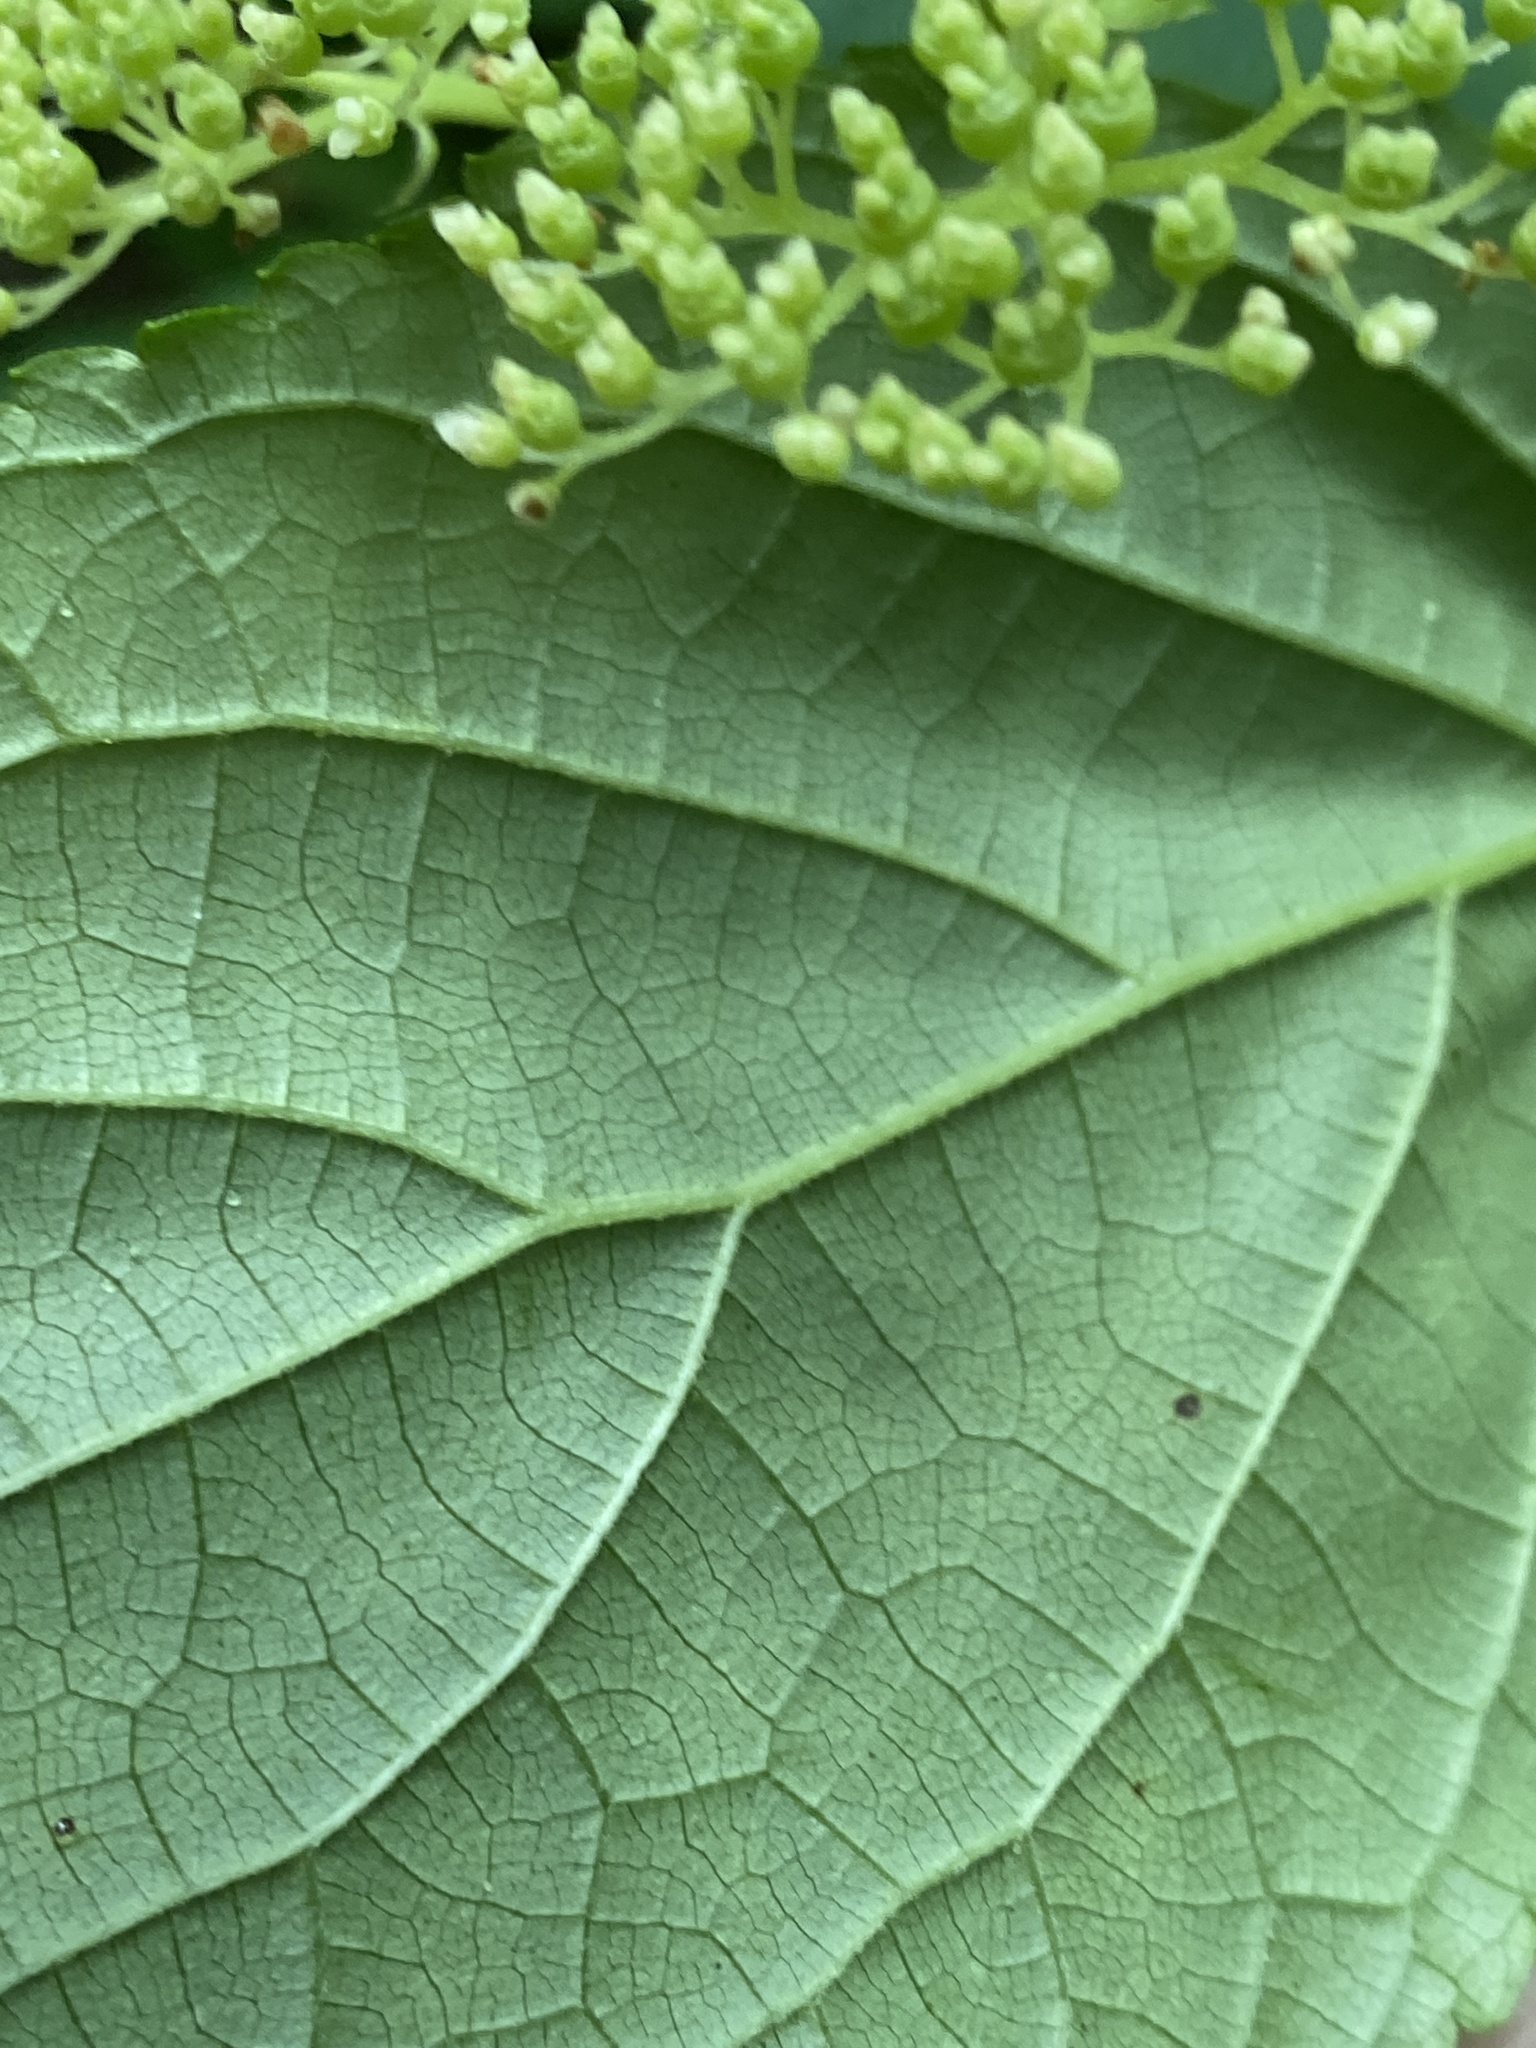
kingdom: Plantae
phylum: Tracheophyta
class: Magnoliopsida
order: Cornales
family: Hydrangeaceae
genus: Hydrangea
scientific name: Hydrangea arborescens
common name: Sevenbark
